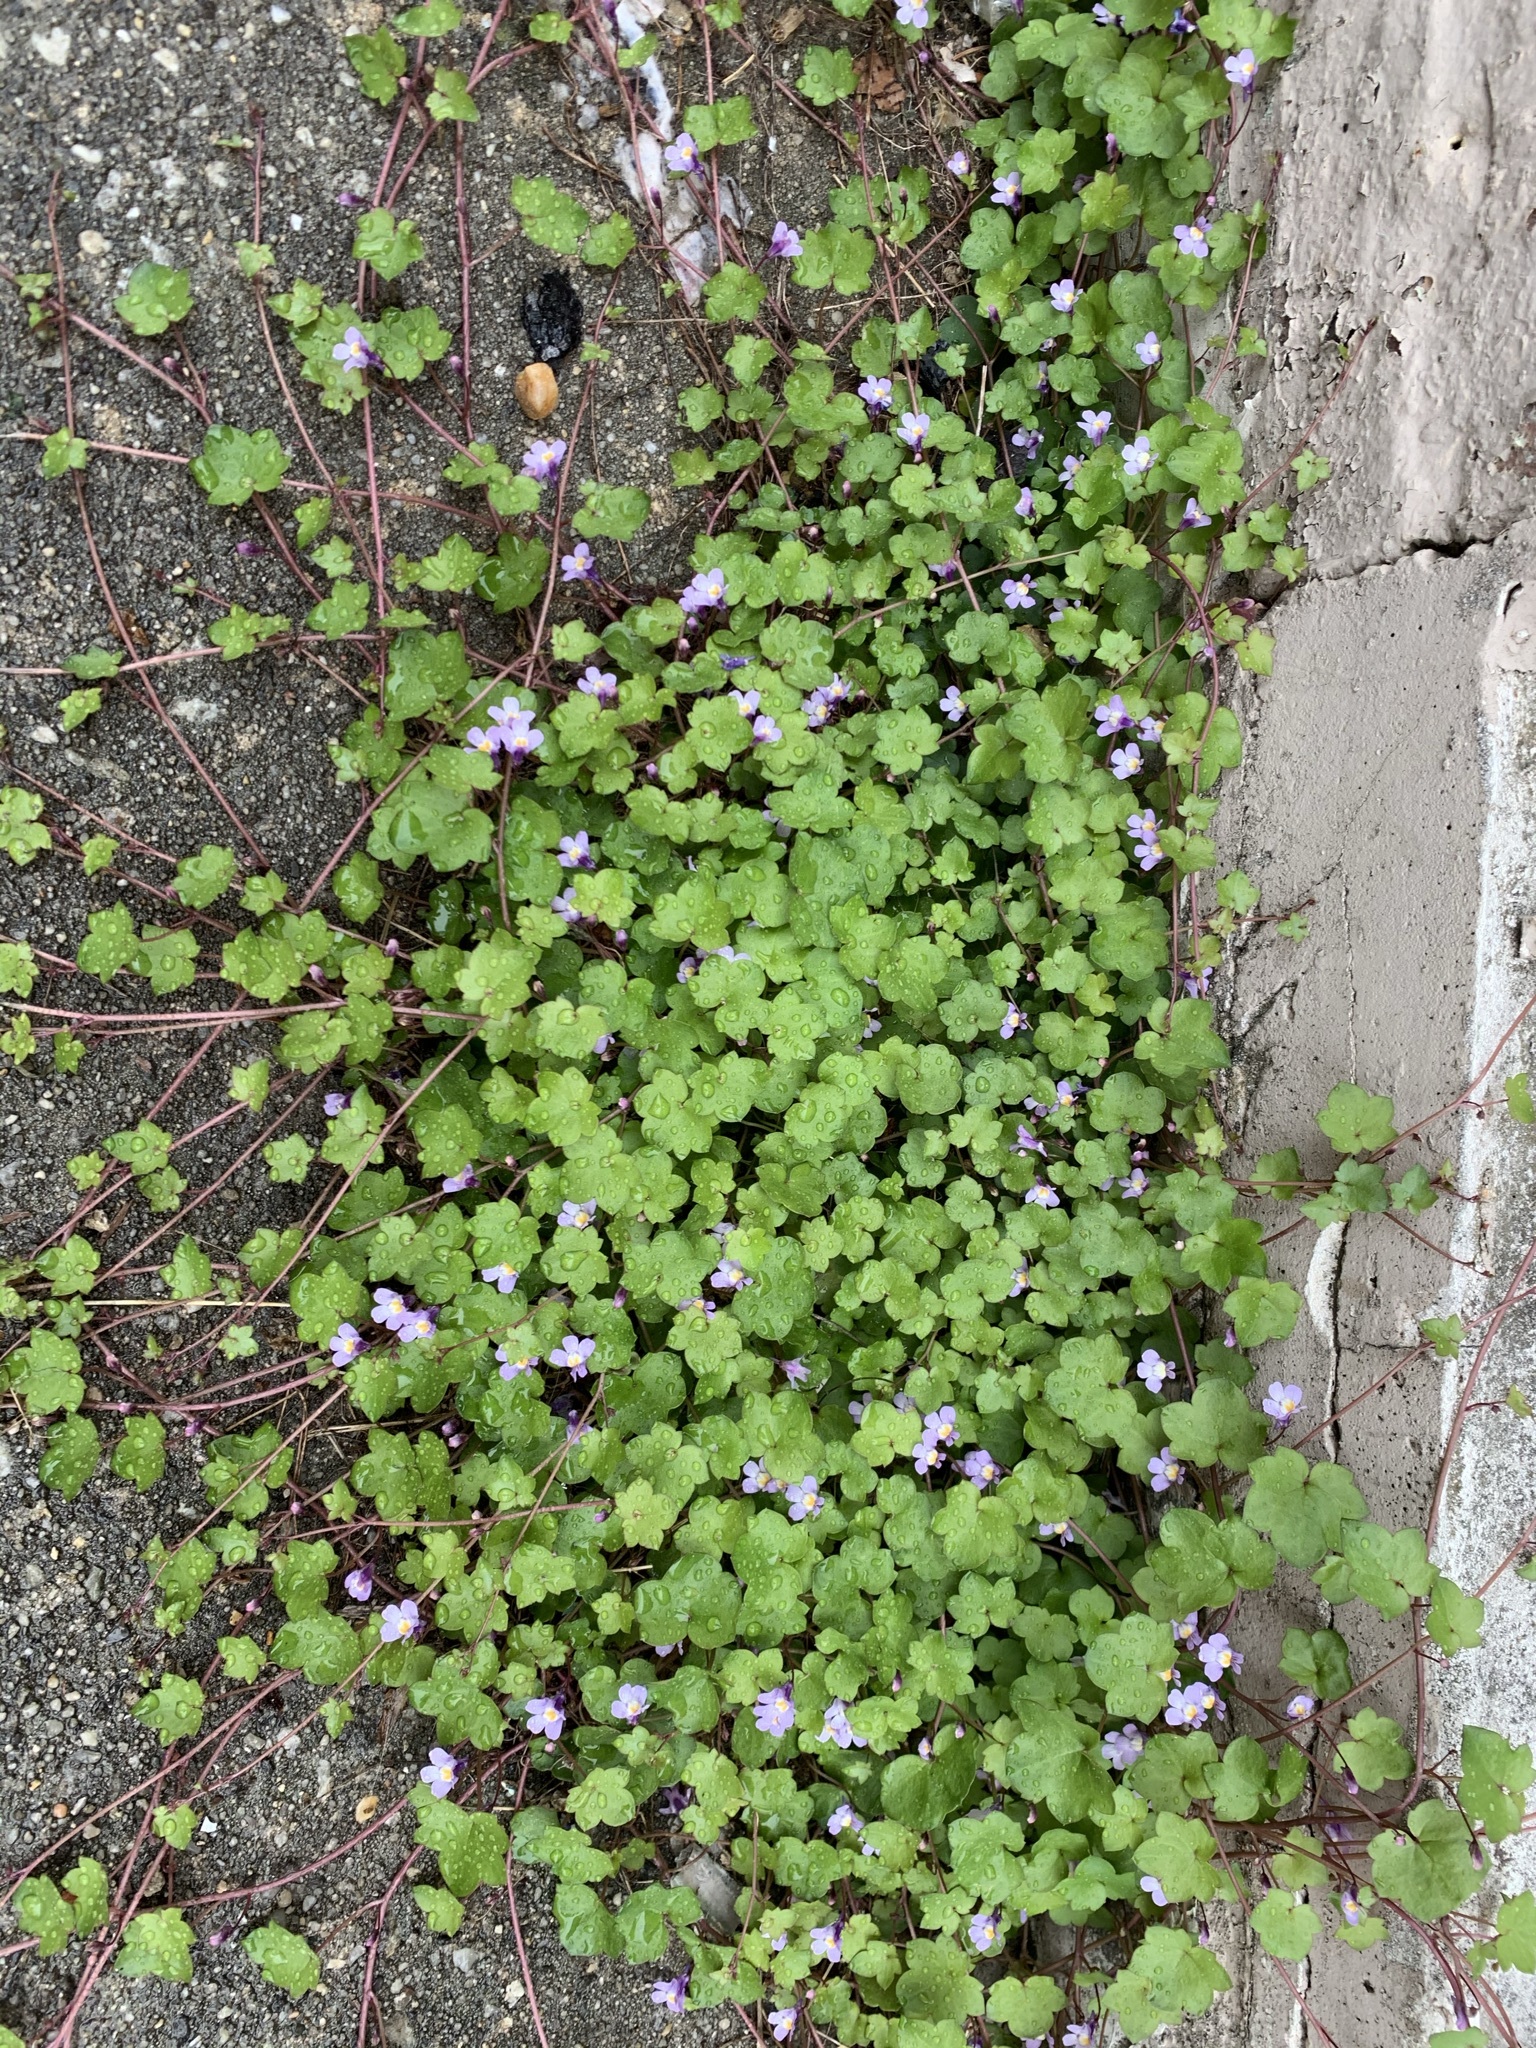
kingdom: Plantae
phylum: Tracheophyta
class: Magnoliopsida
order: Lamiales
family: Plantaginaceae
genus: Cymbalaria
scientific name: Cymbalaria muralis
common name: Ivy-leaved toadflax
